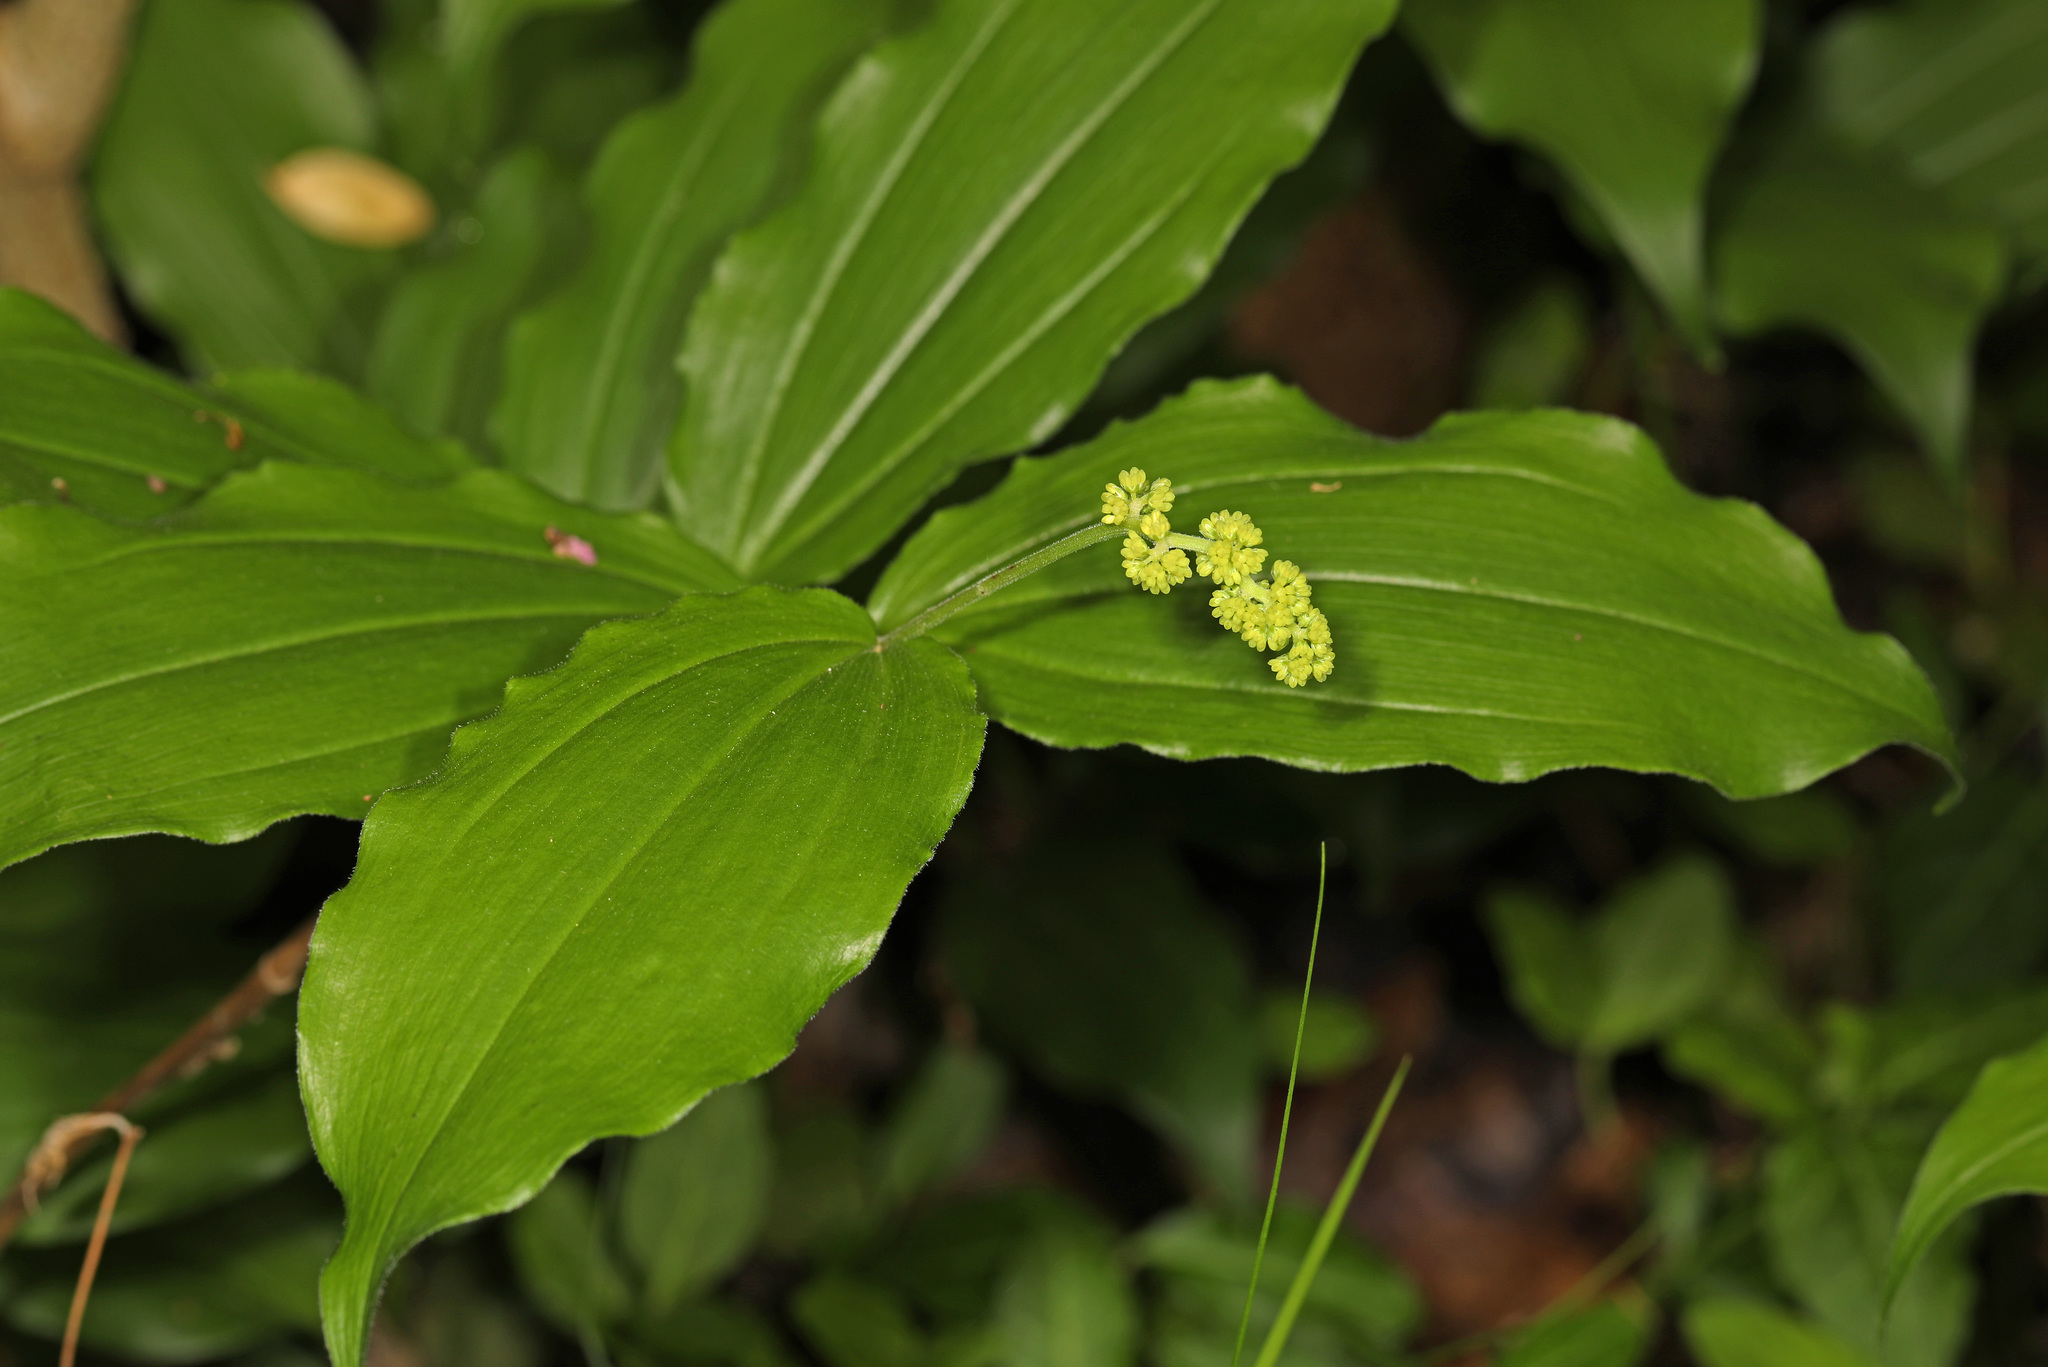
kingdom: Plantae
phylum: Tracheophyta
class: Liliopsida
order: Asparagales
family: Asparagaceae
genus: Maianthemum
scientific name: Maianthemum racemosum
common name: False spikenard
